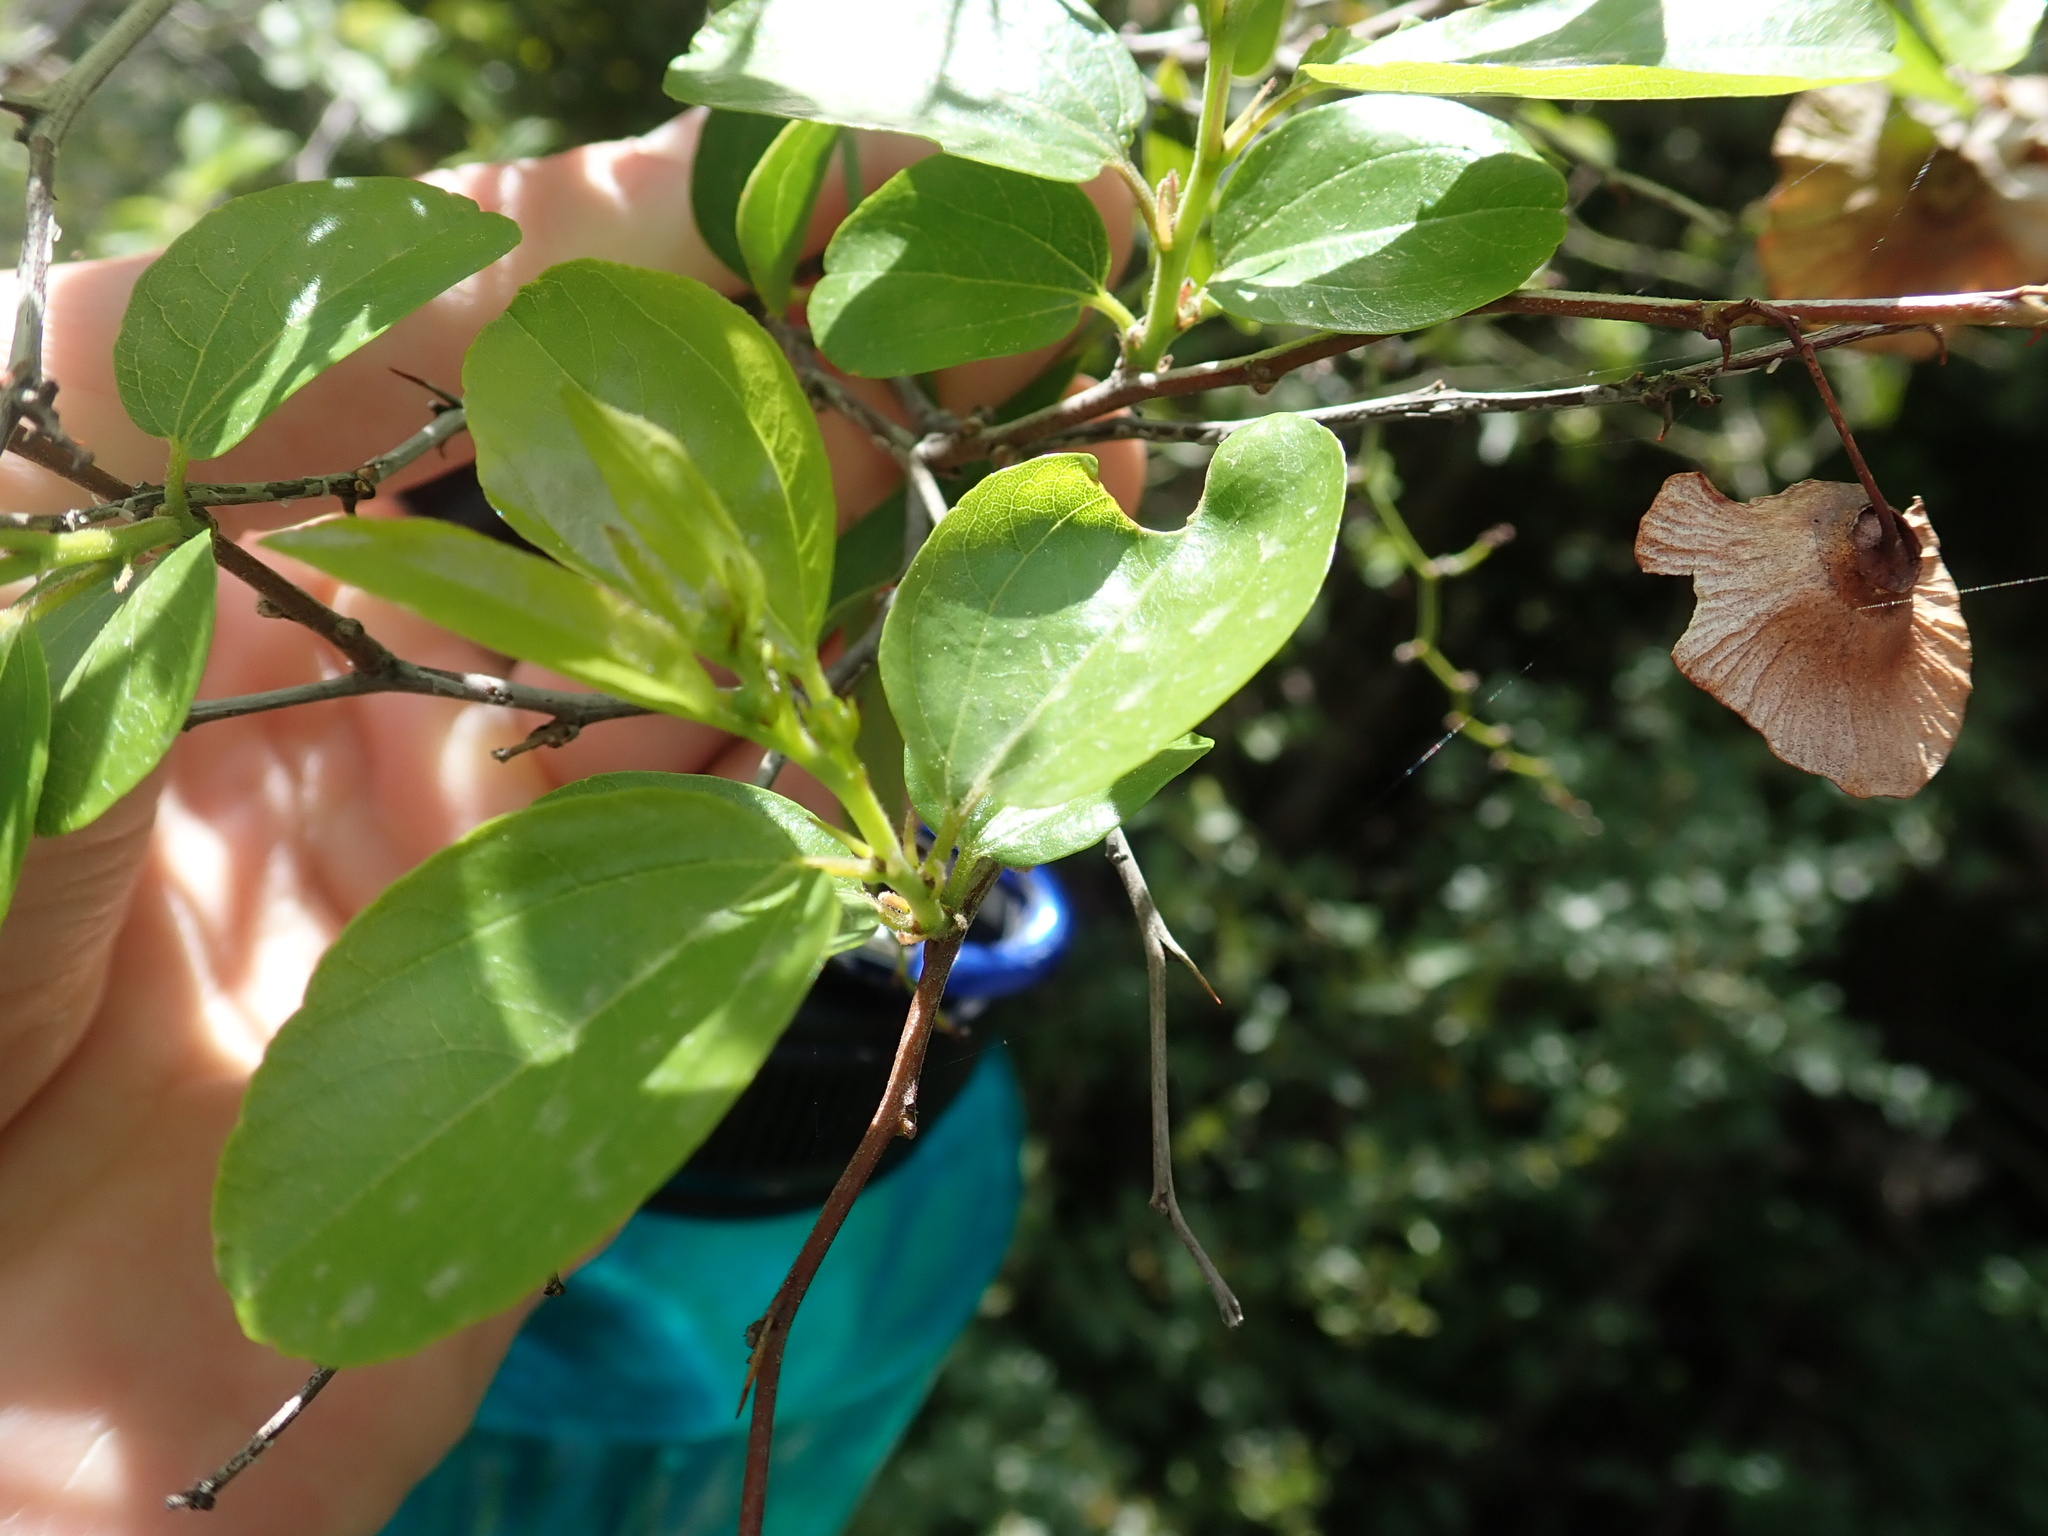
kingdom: Plantae
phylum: Tracheophyta
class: Magnoliopsida
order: Rosales
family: Rhamnaceae
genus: Paliurus
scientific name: Paliurus spina-christi
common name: Jeruselem thorn
